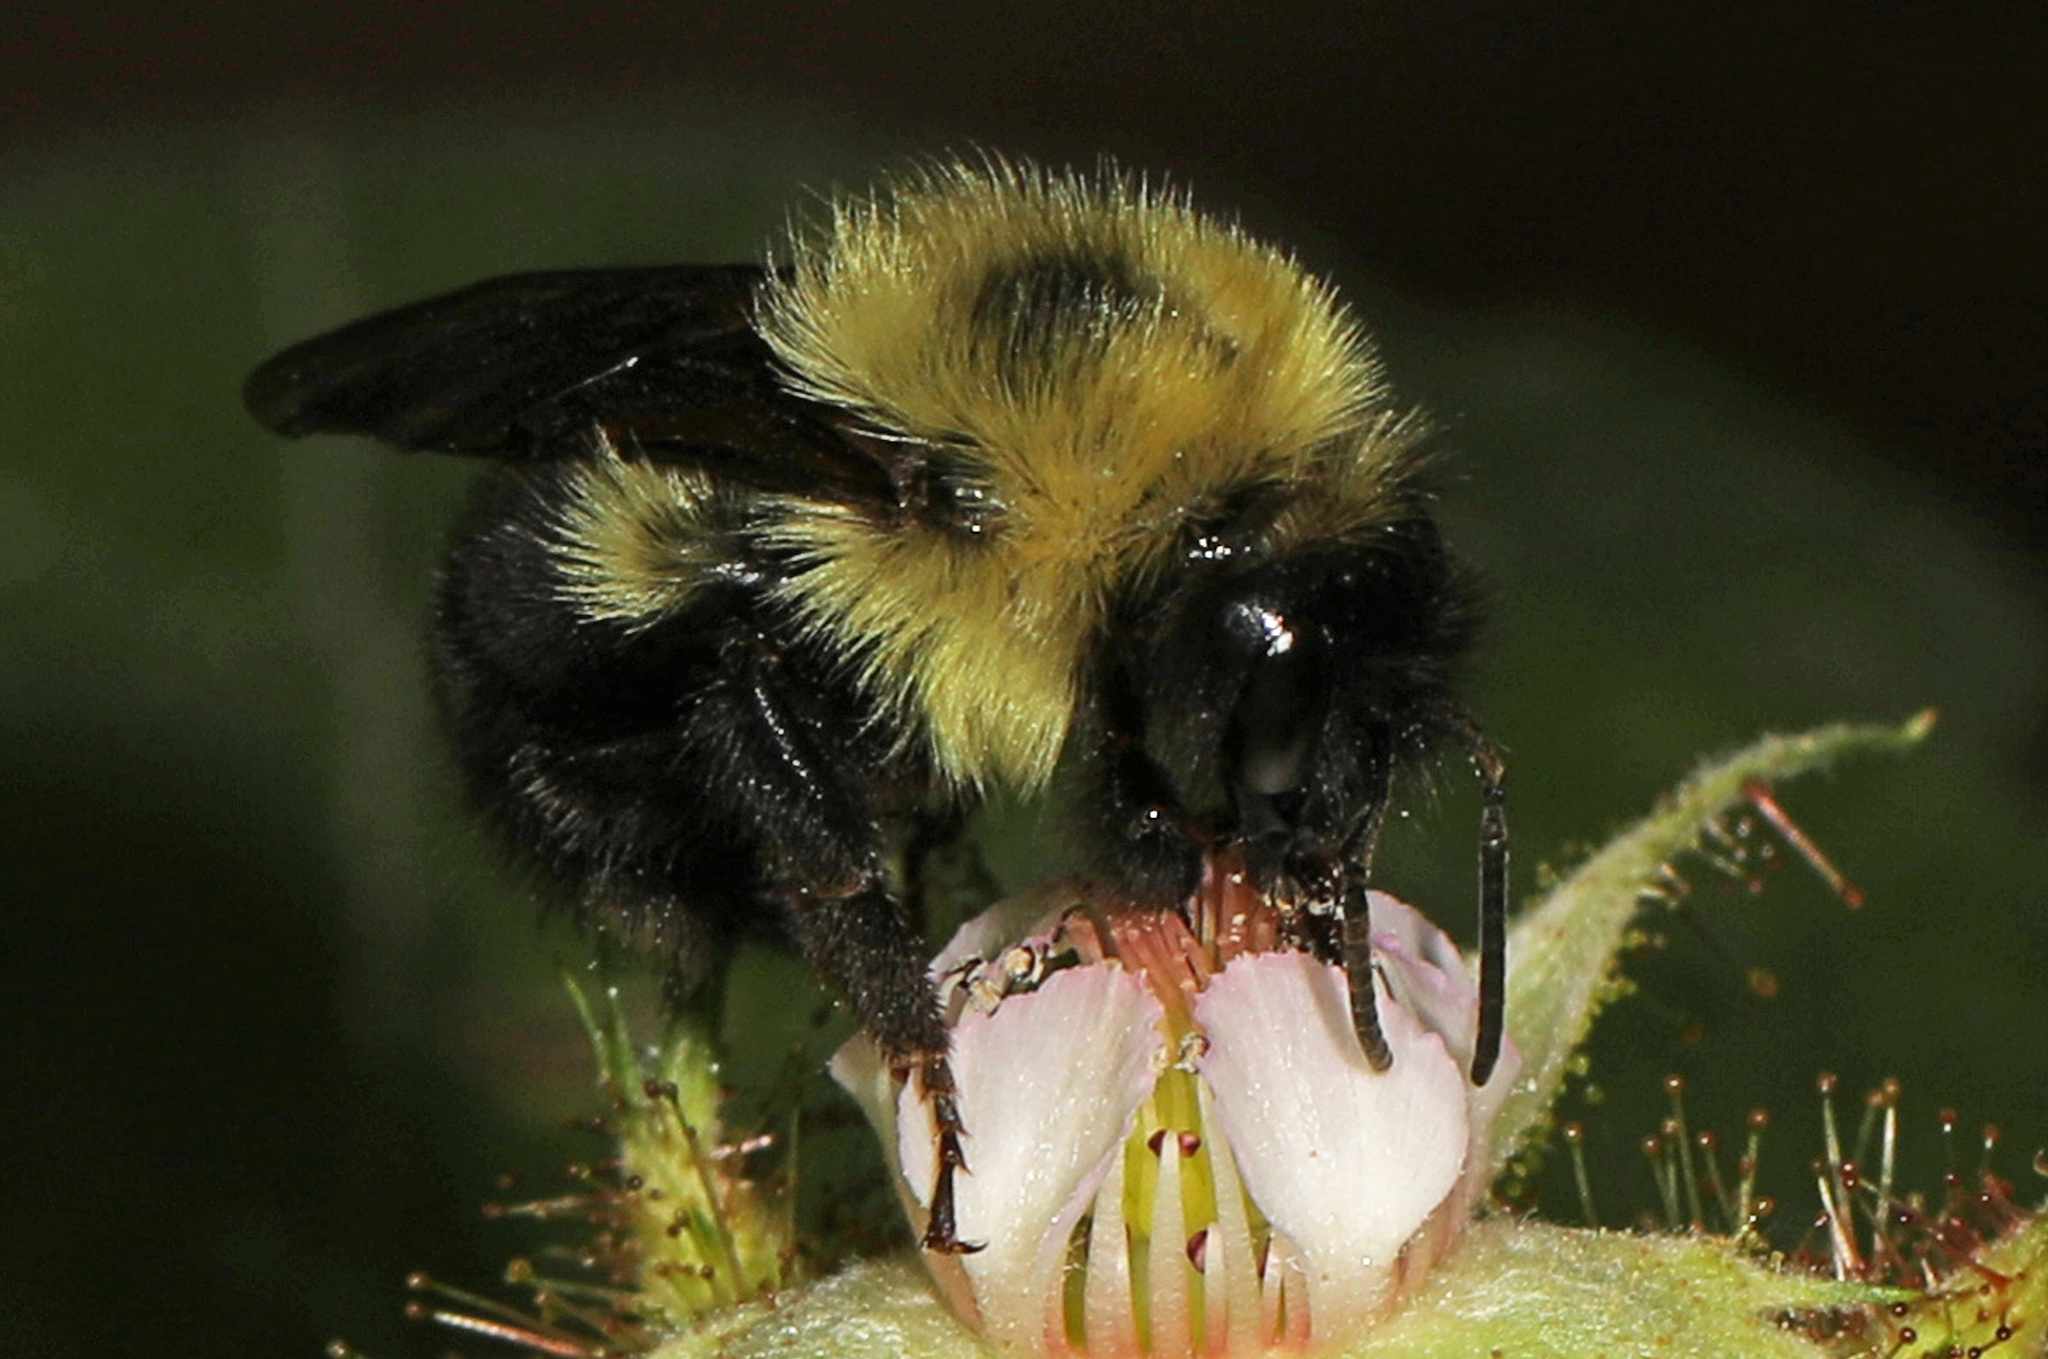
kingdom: Animalia
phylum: Arthropoda
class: Insecta
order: Hymenoptera
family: Apidae
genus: Bombus
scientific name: Bombus bimaculatus
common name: Two-spotted bumble bee
